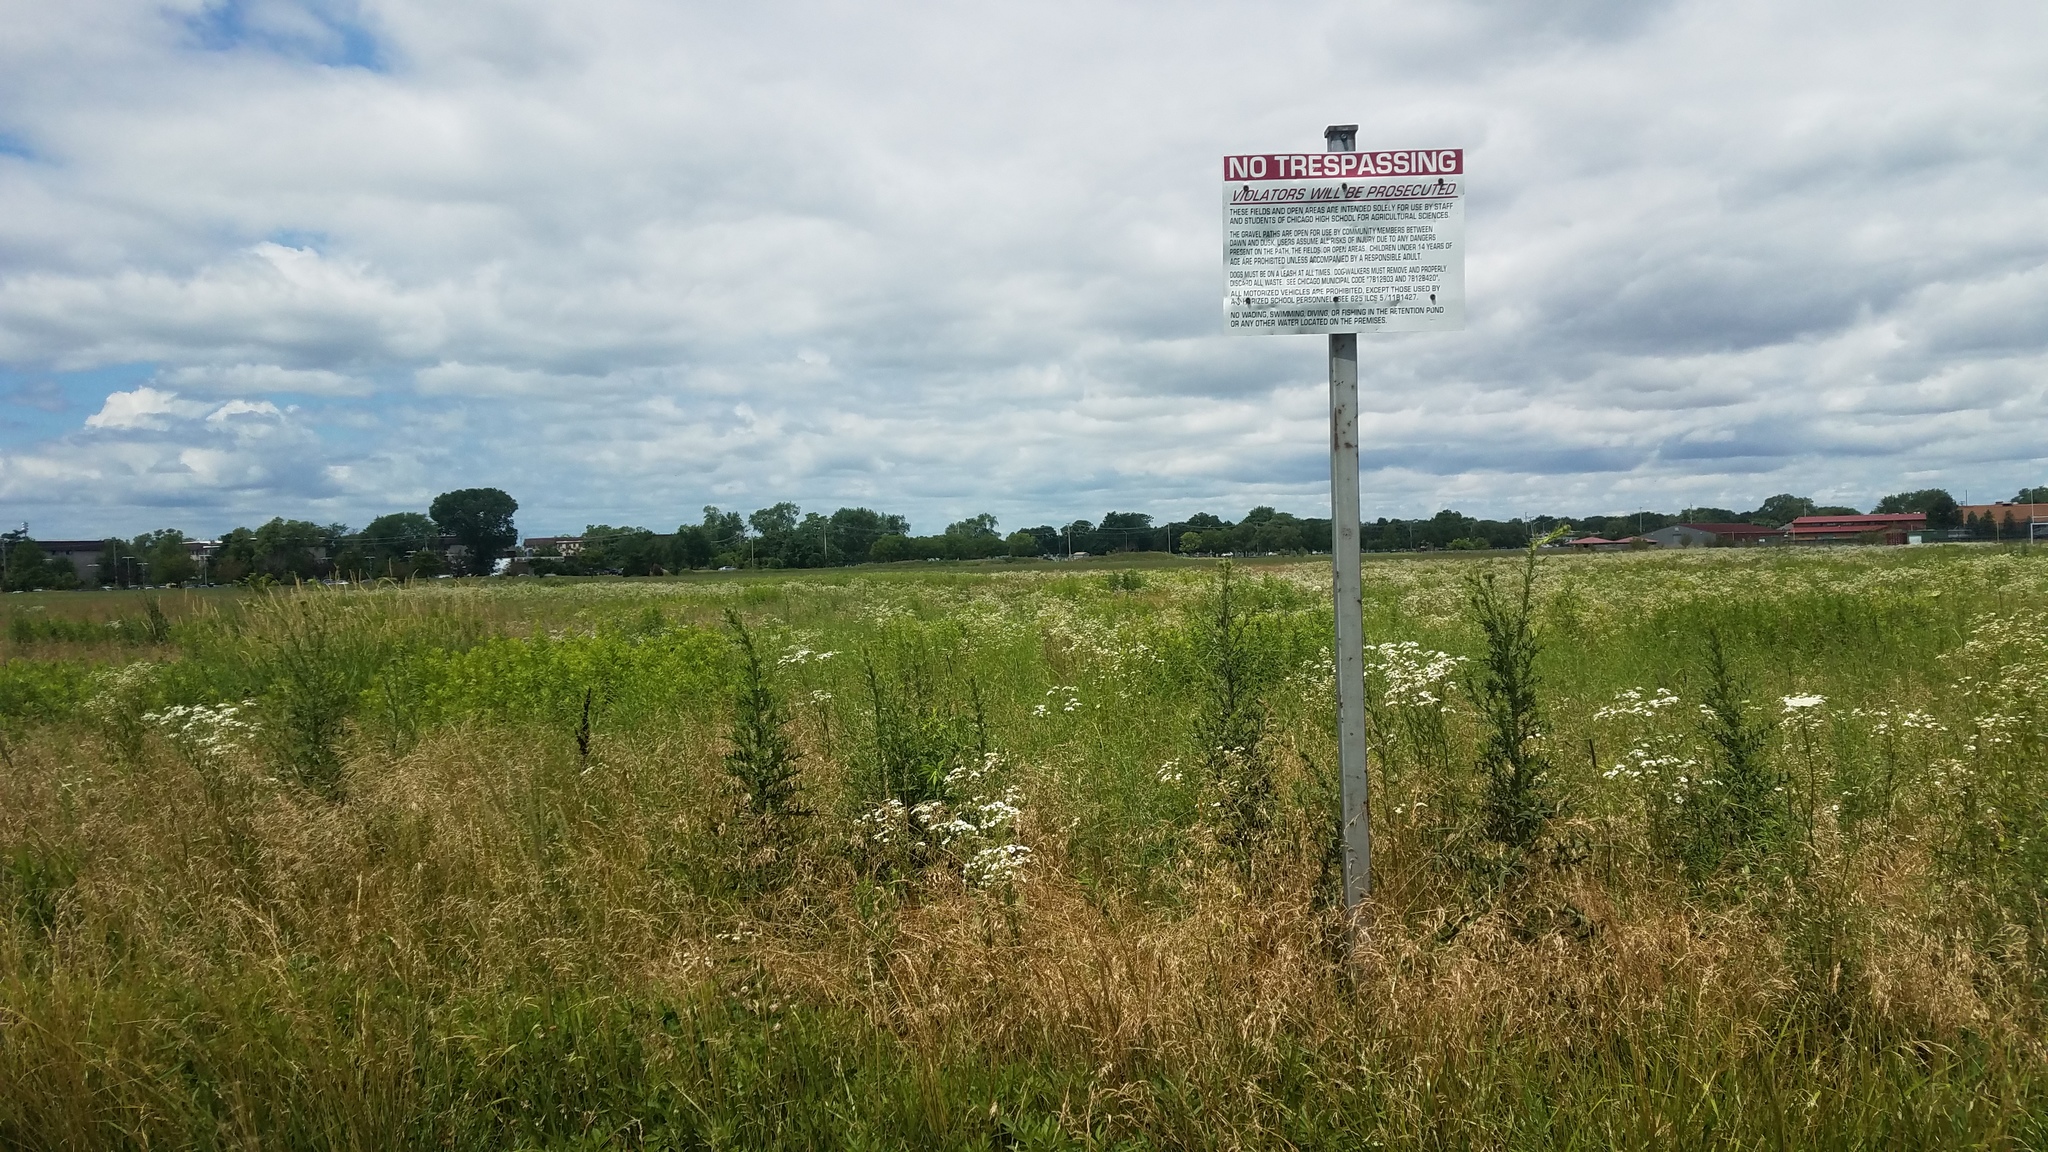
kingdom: Plantae
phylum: Tracheophyta
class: Magnoliopsida
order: Apiales
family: Apiaceae
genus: Daucus
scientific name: Daucus carota
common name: Wild carrot
